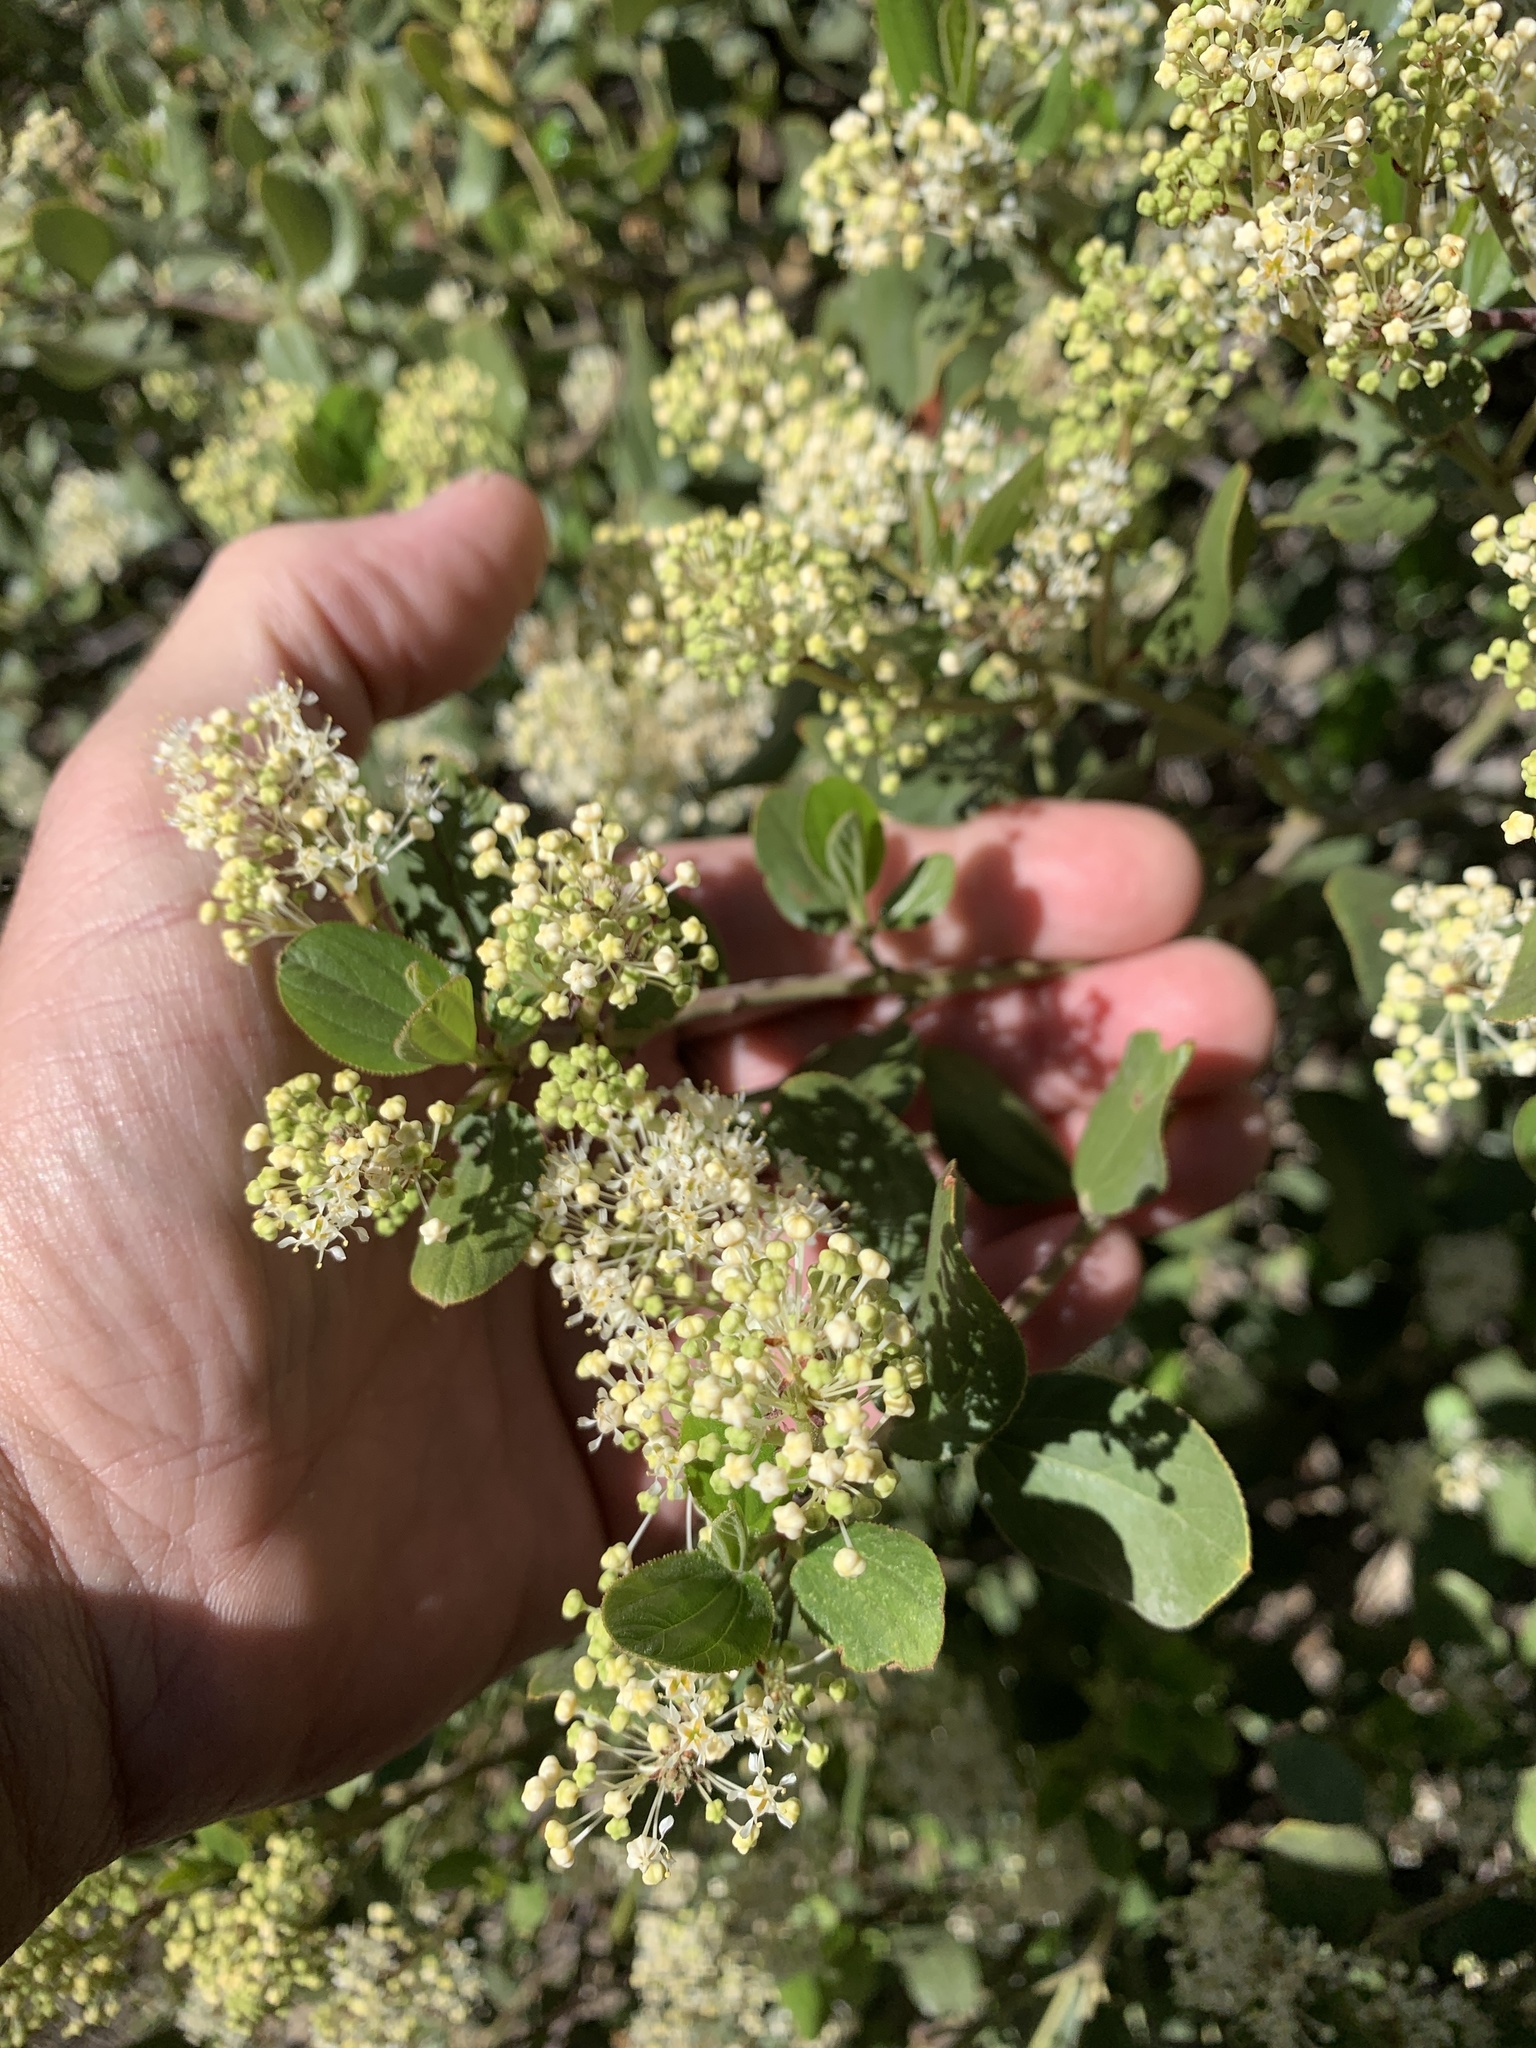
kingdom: Plantae
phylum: Tracheophyta
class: Magnoliopsida
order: Rosales
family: Rhamnaceae
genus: Ceanothus
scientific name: Ceanothus velutinus
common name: Snowbrush
